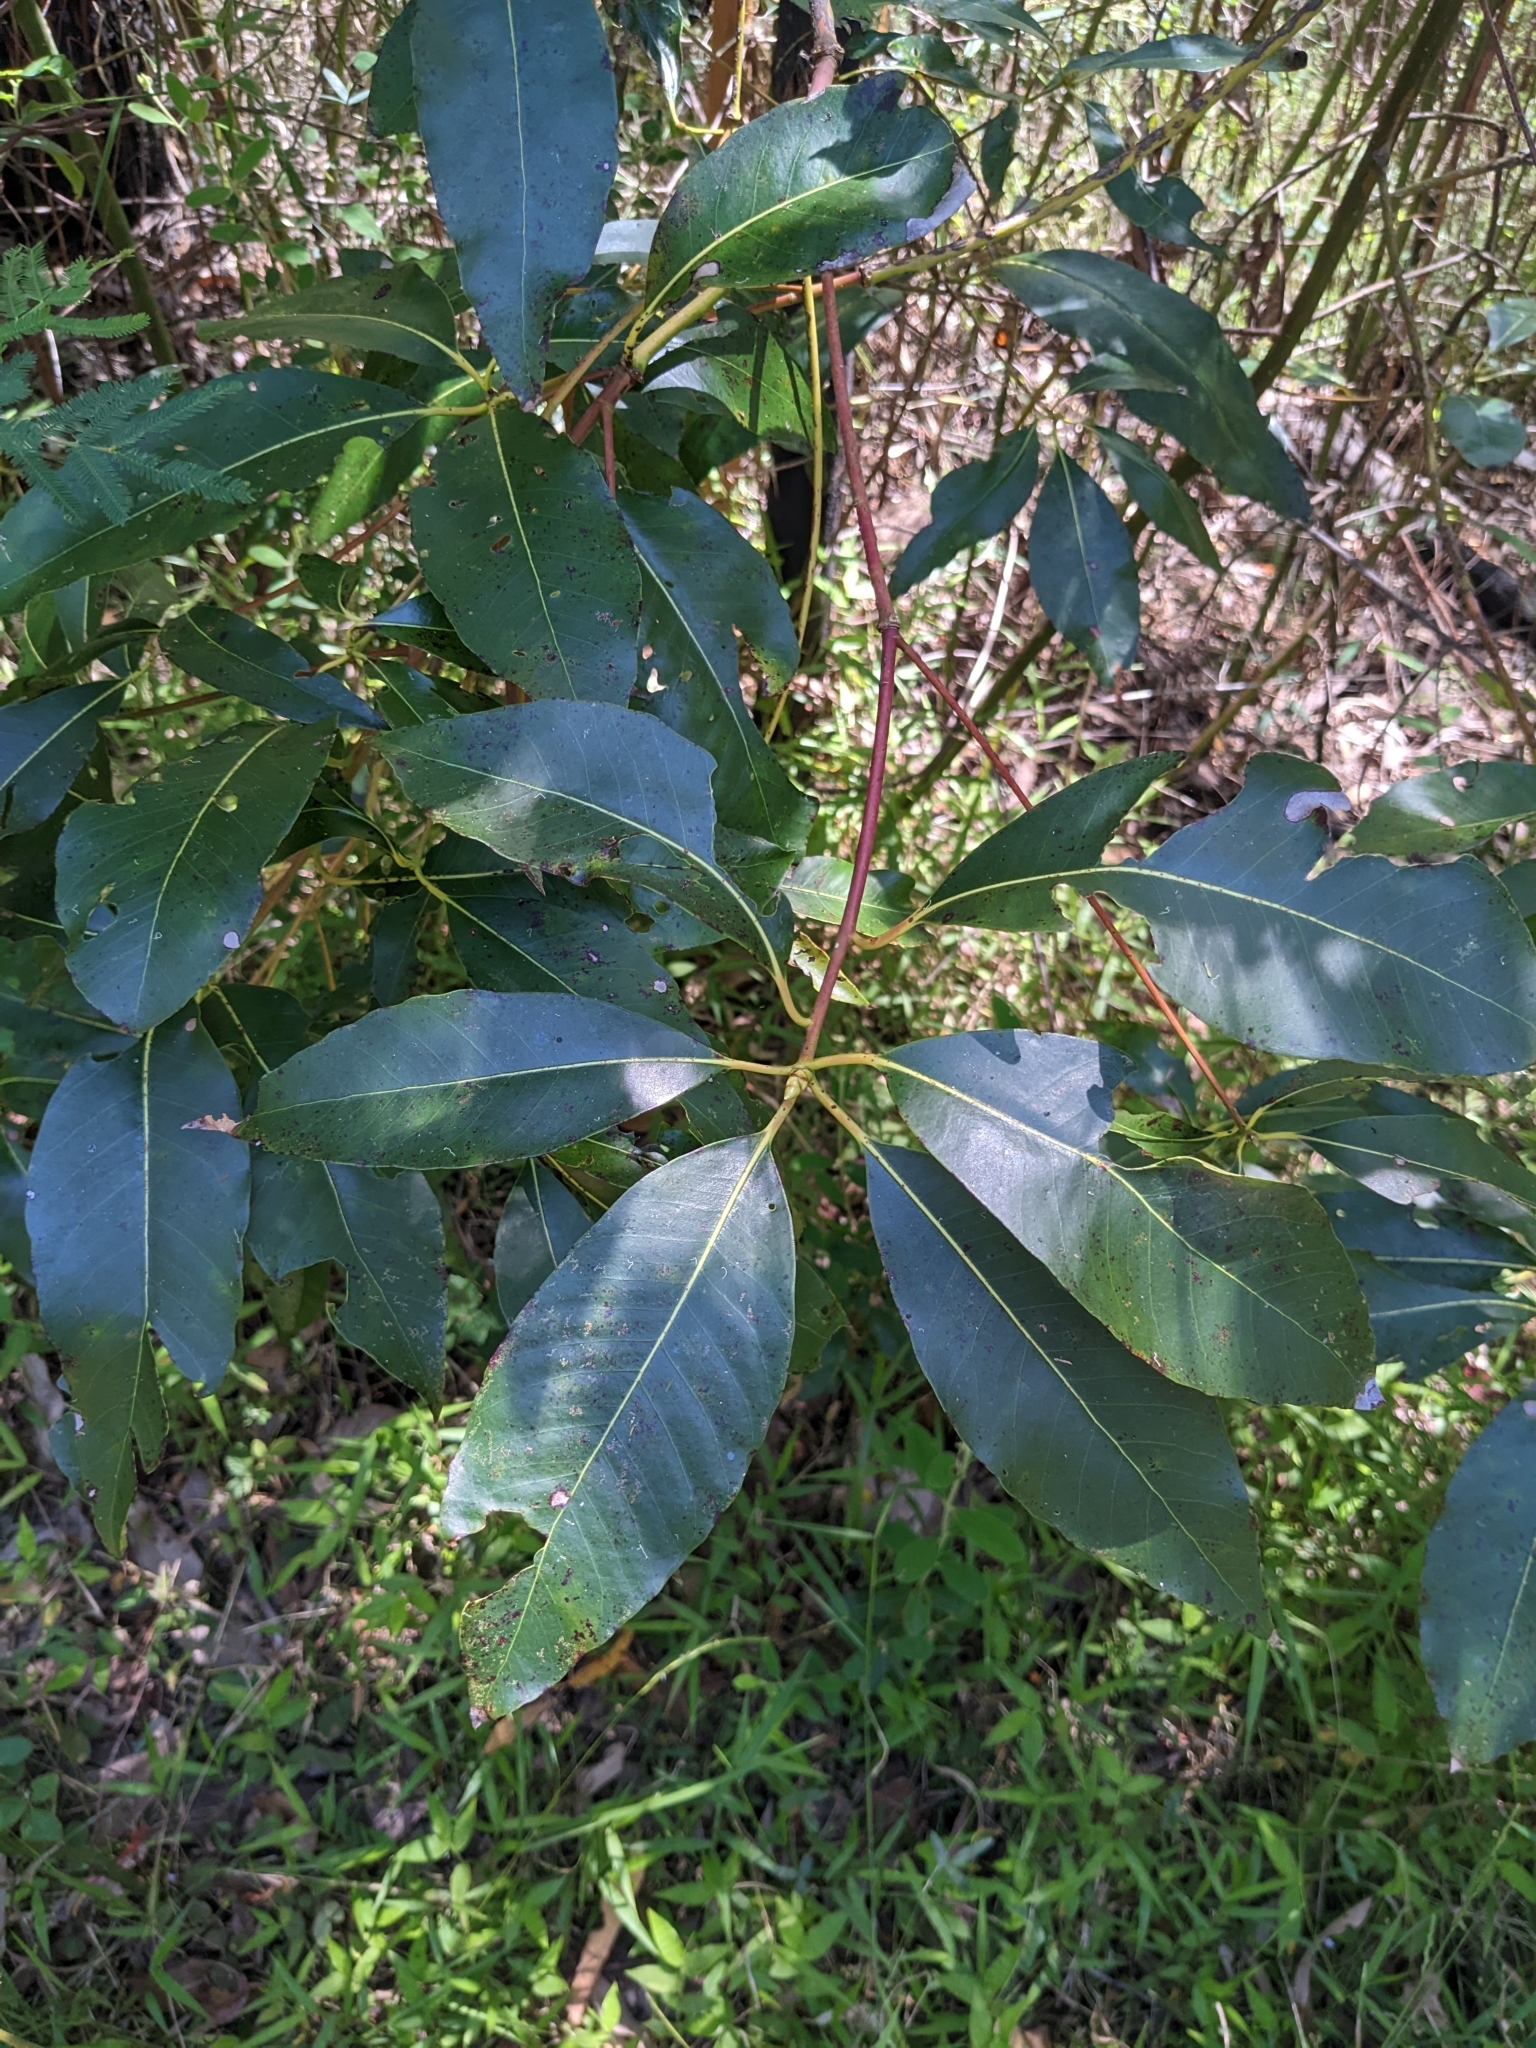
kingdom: Plantae
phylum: Tracheophyta
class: Magnoliopsida
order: Myrtales
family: Myrtaceae
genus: Lophostemon
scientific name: Lophostemon confertus
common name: Brisbane box
